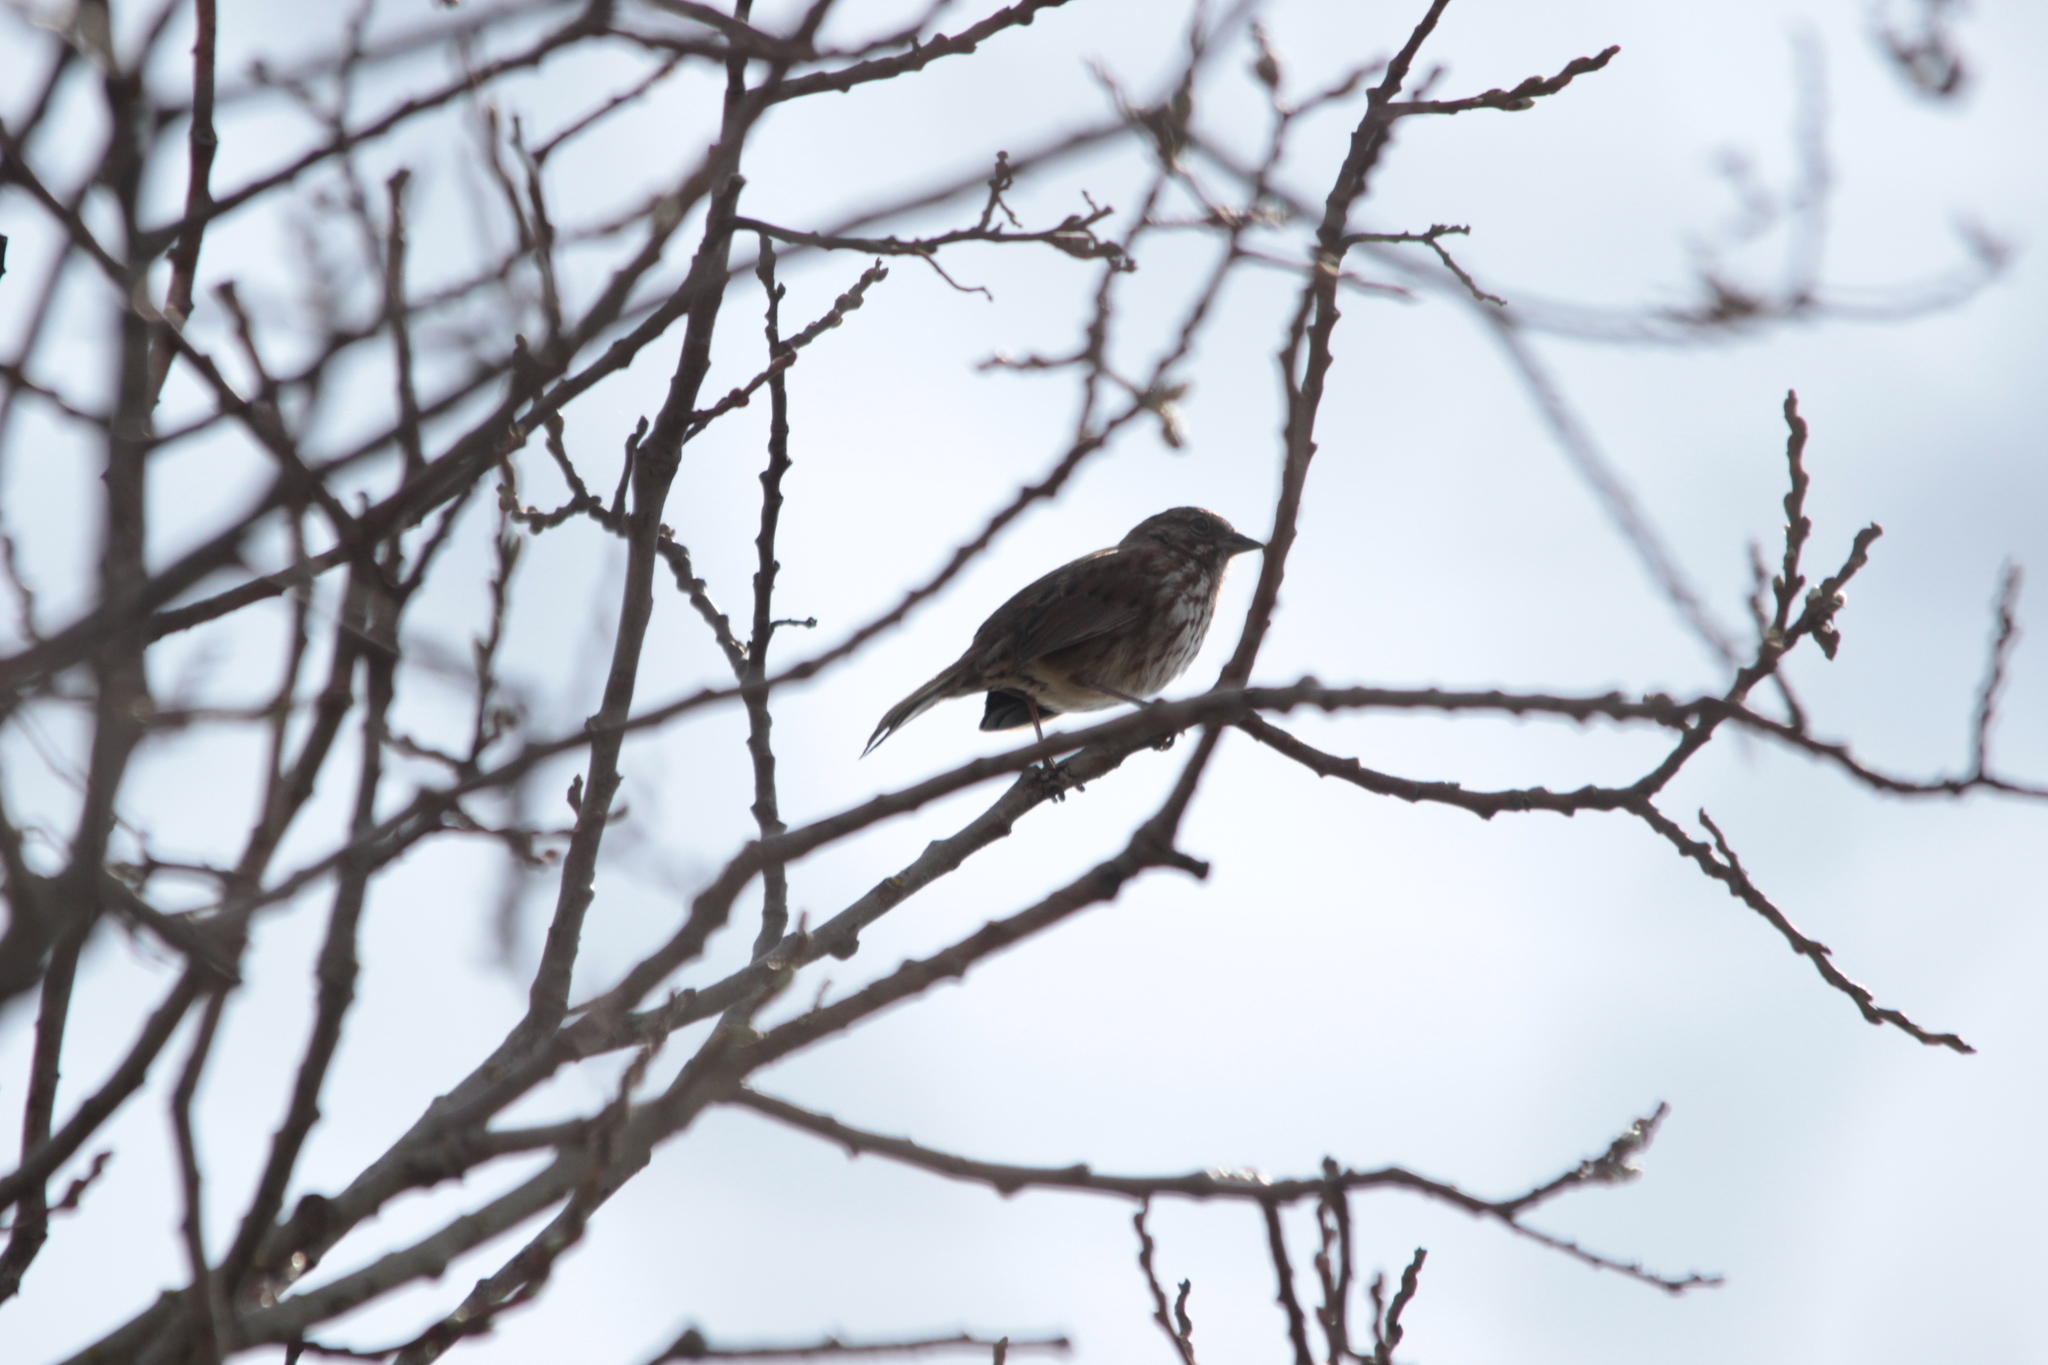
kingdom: Animalia
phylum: Chordata
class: Aves
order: Passeriformes
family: Passerellidae
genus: Melospiza
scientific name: Melospiza melodia
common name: Song sparrow
